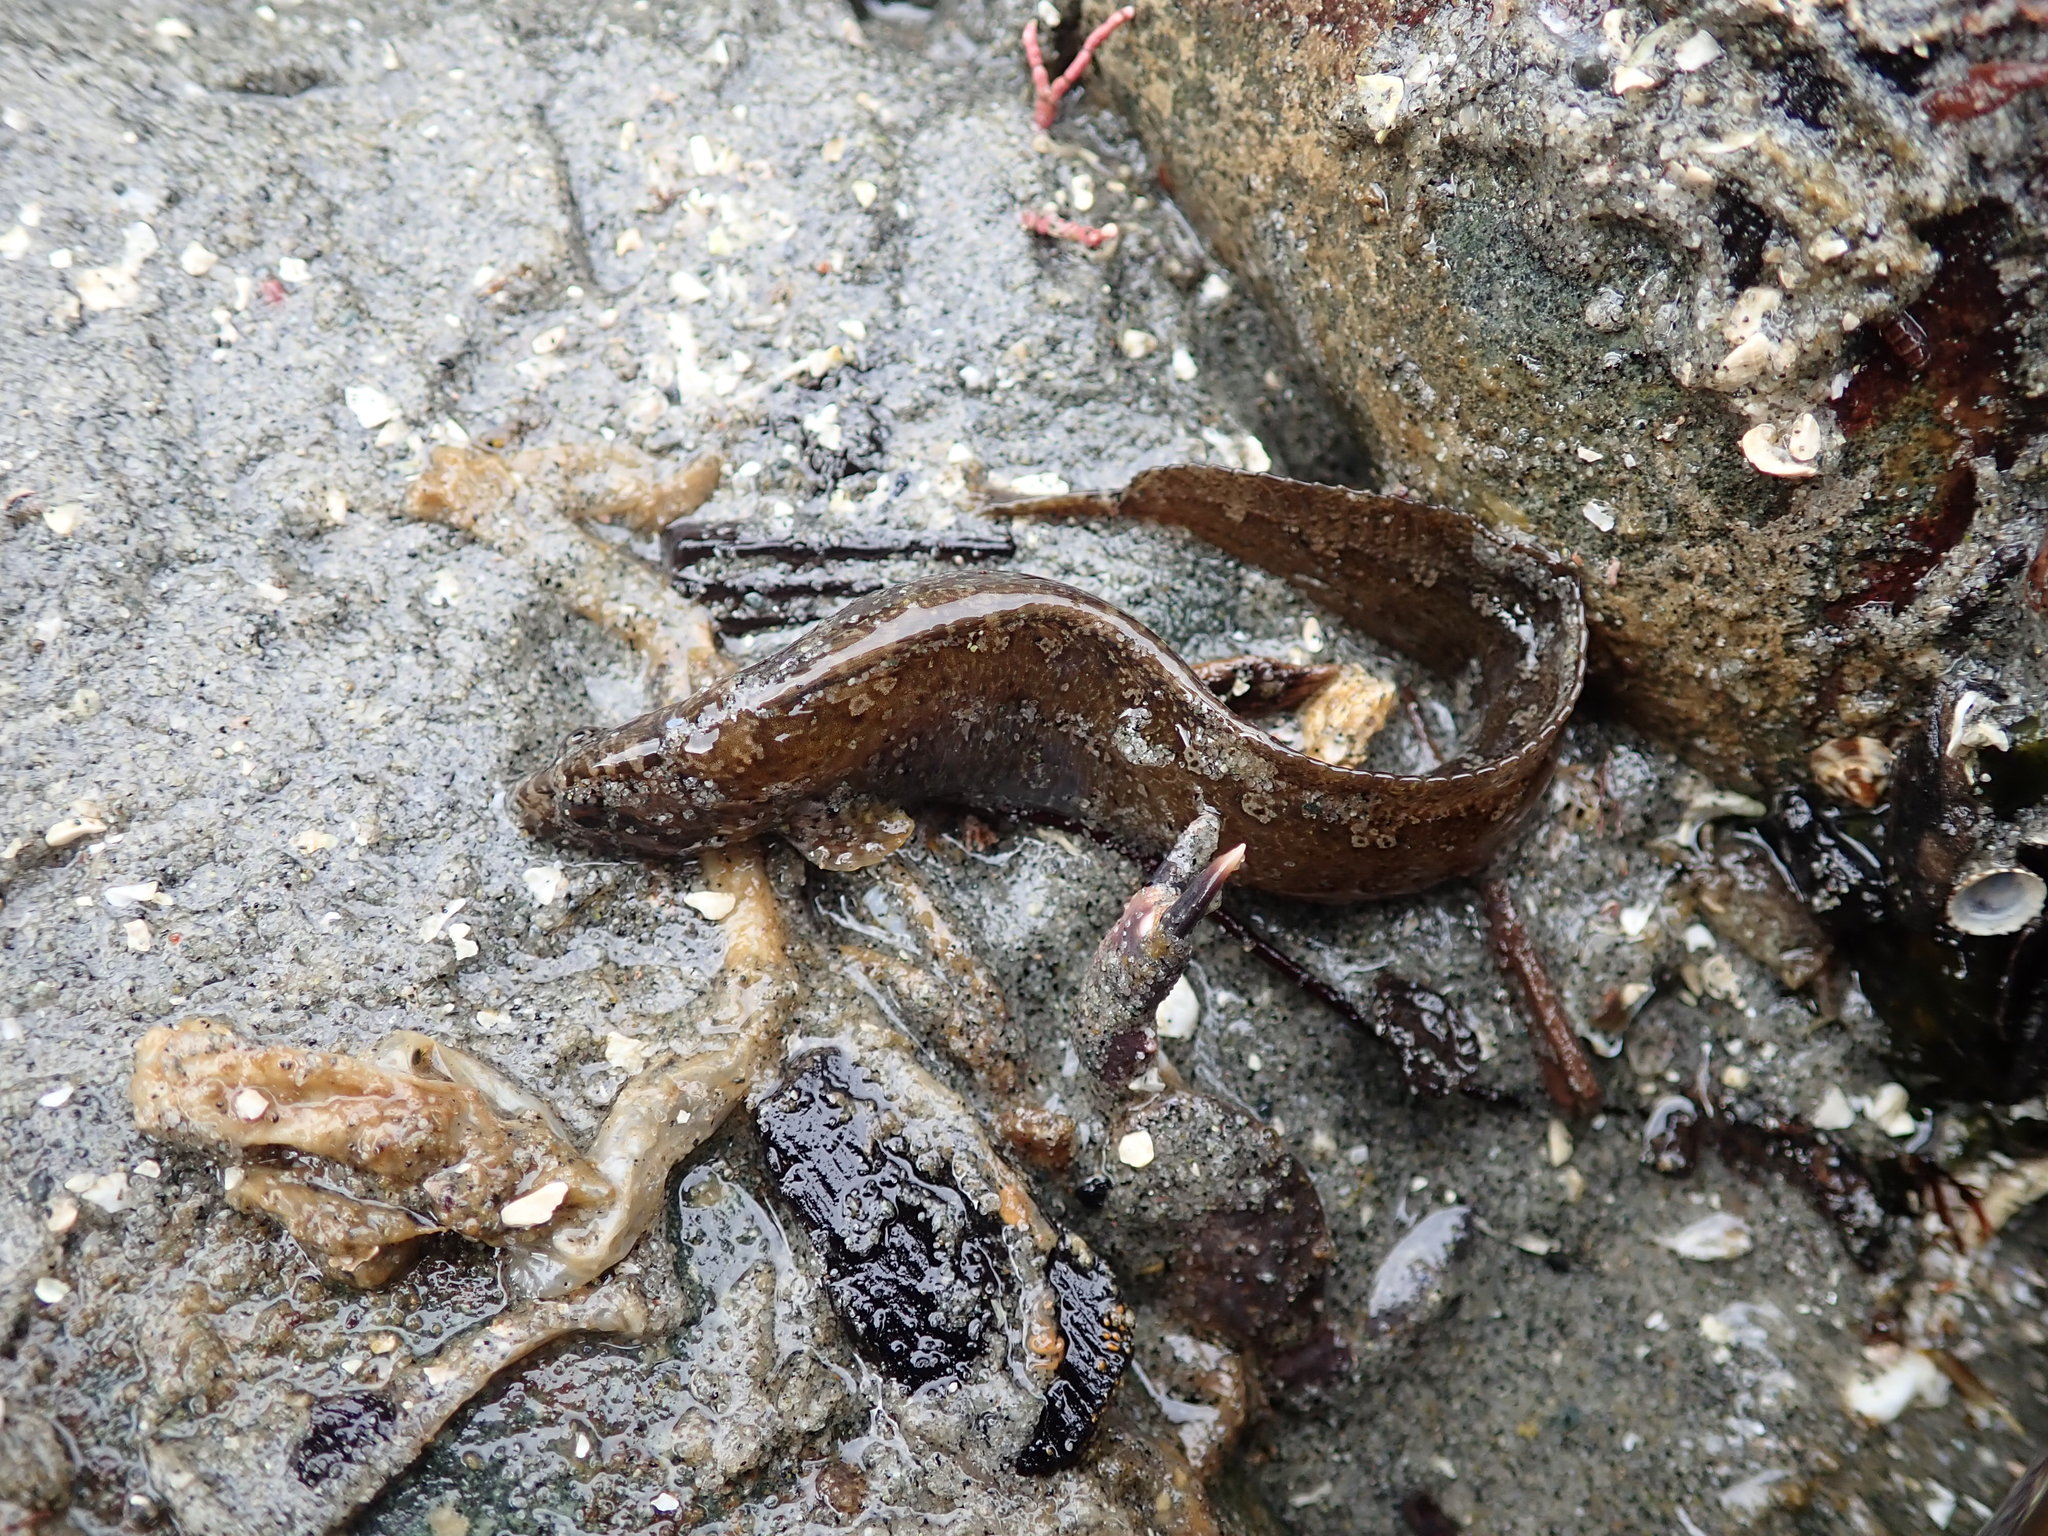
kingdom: Animalia
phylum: Chordata
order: Perciformes
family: Stichaeidae
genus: Anoplarchus
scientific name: Anoplarchus purpurescens
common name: High cockscomb
